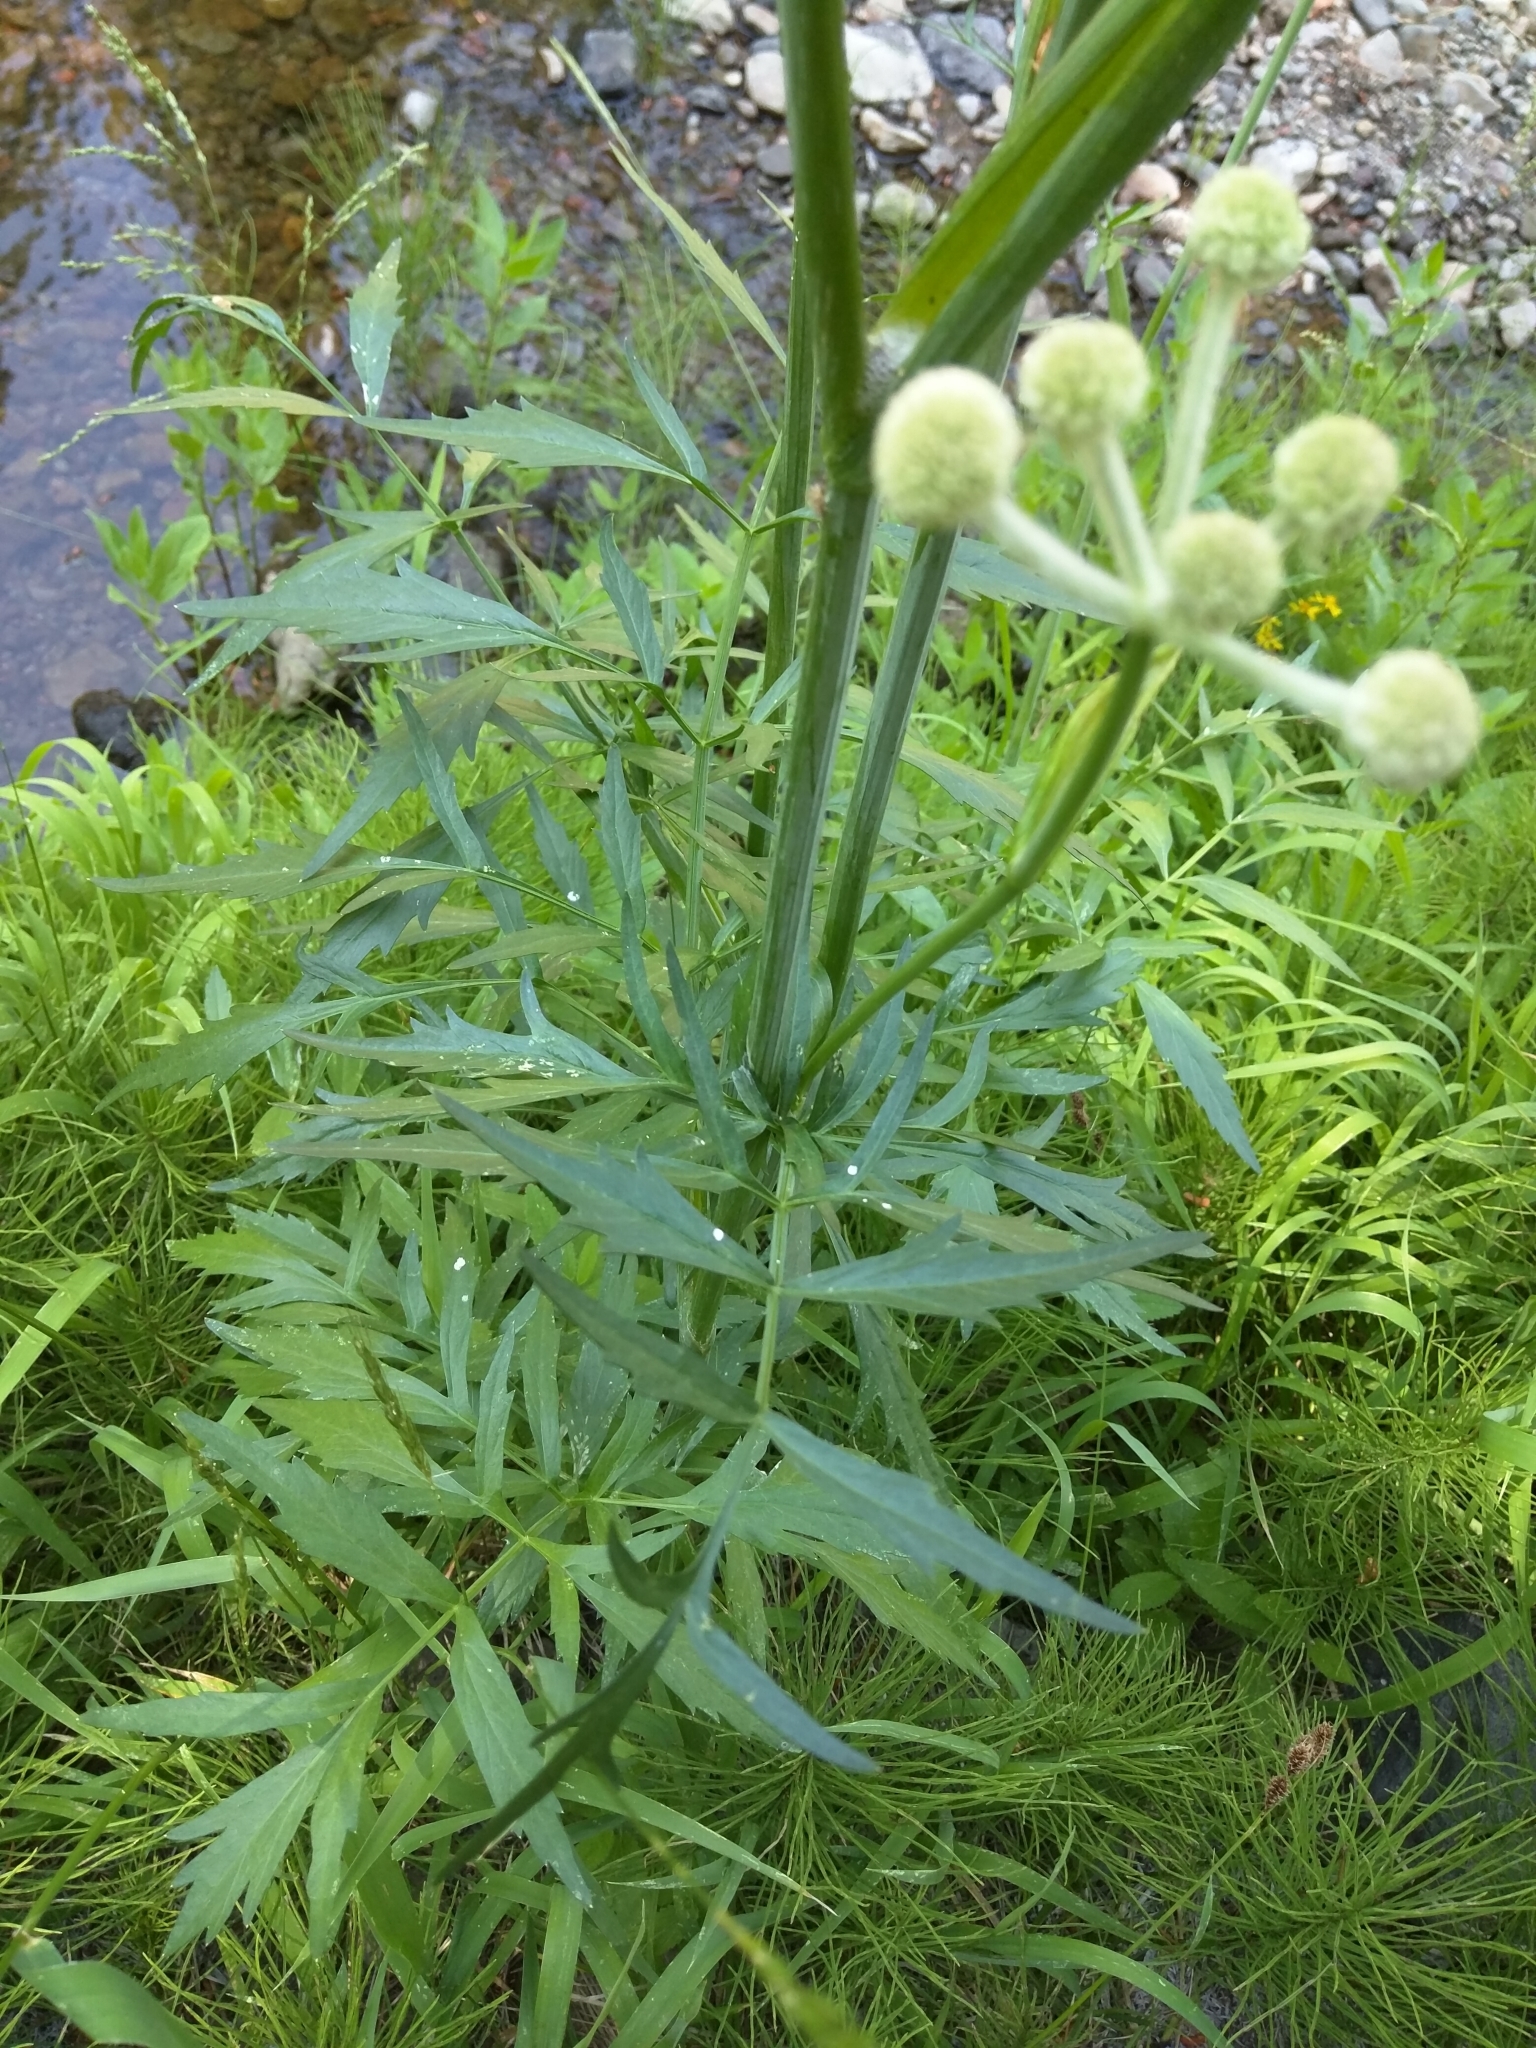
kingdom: Plantae
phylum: Tracheophyta
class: Magnoliopsida
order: Apiales
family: Apiaceae
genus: Angelica
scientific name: Angelica capitellata
